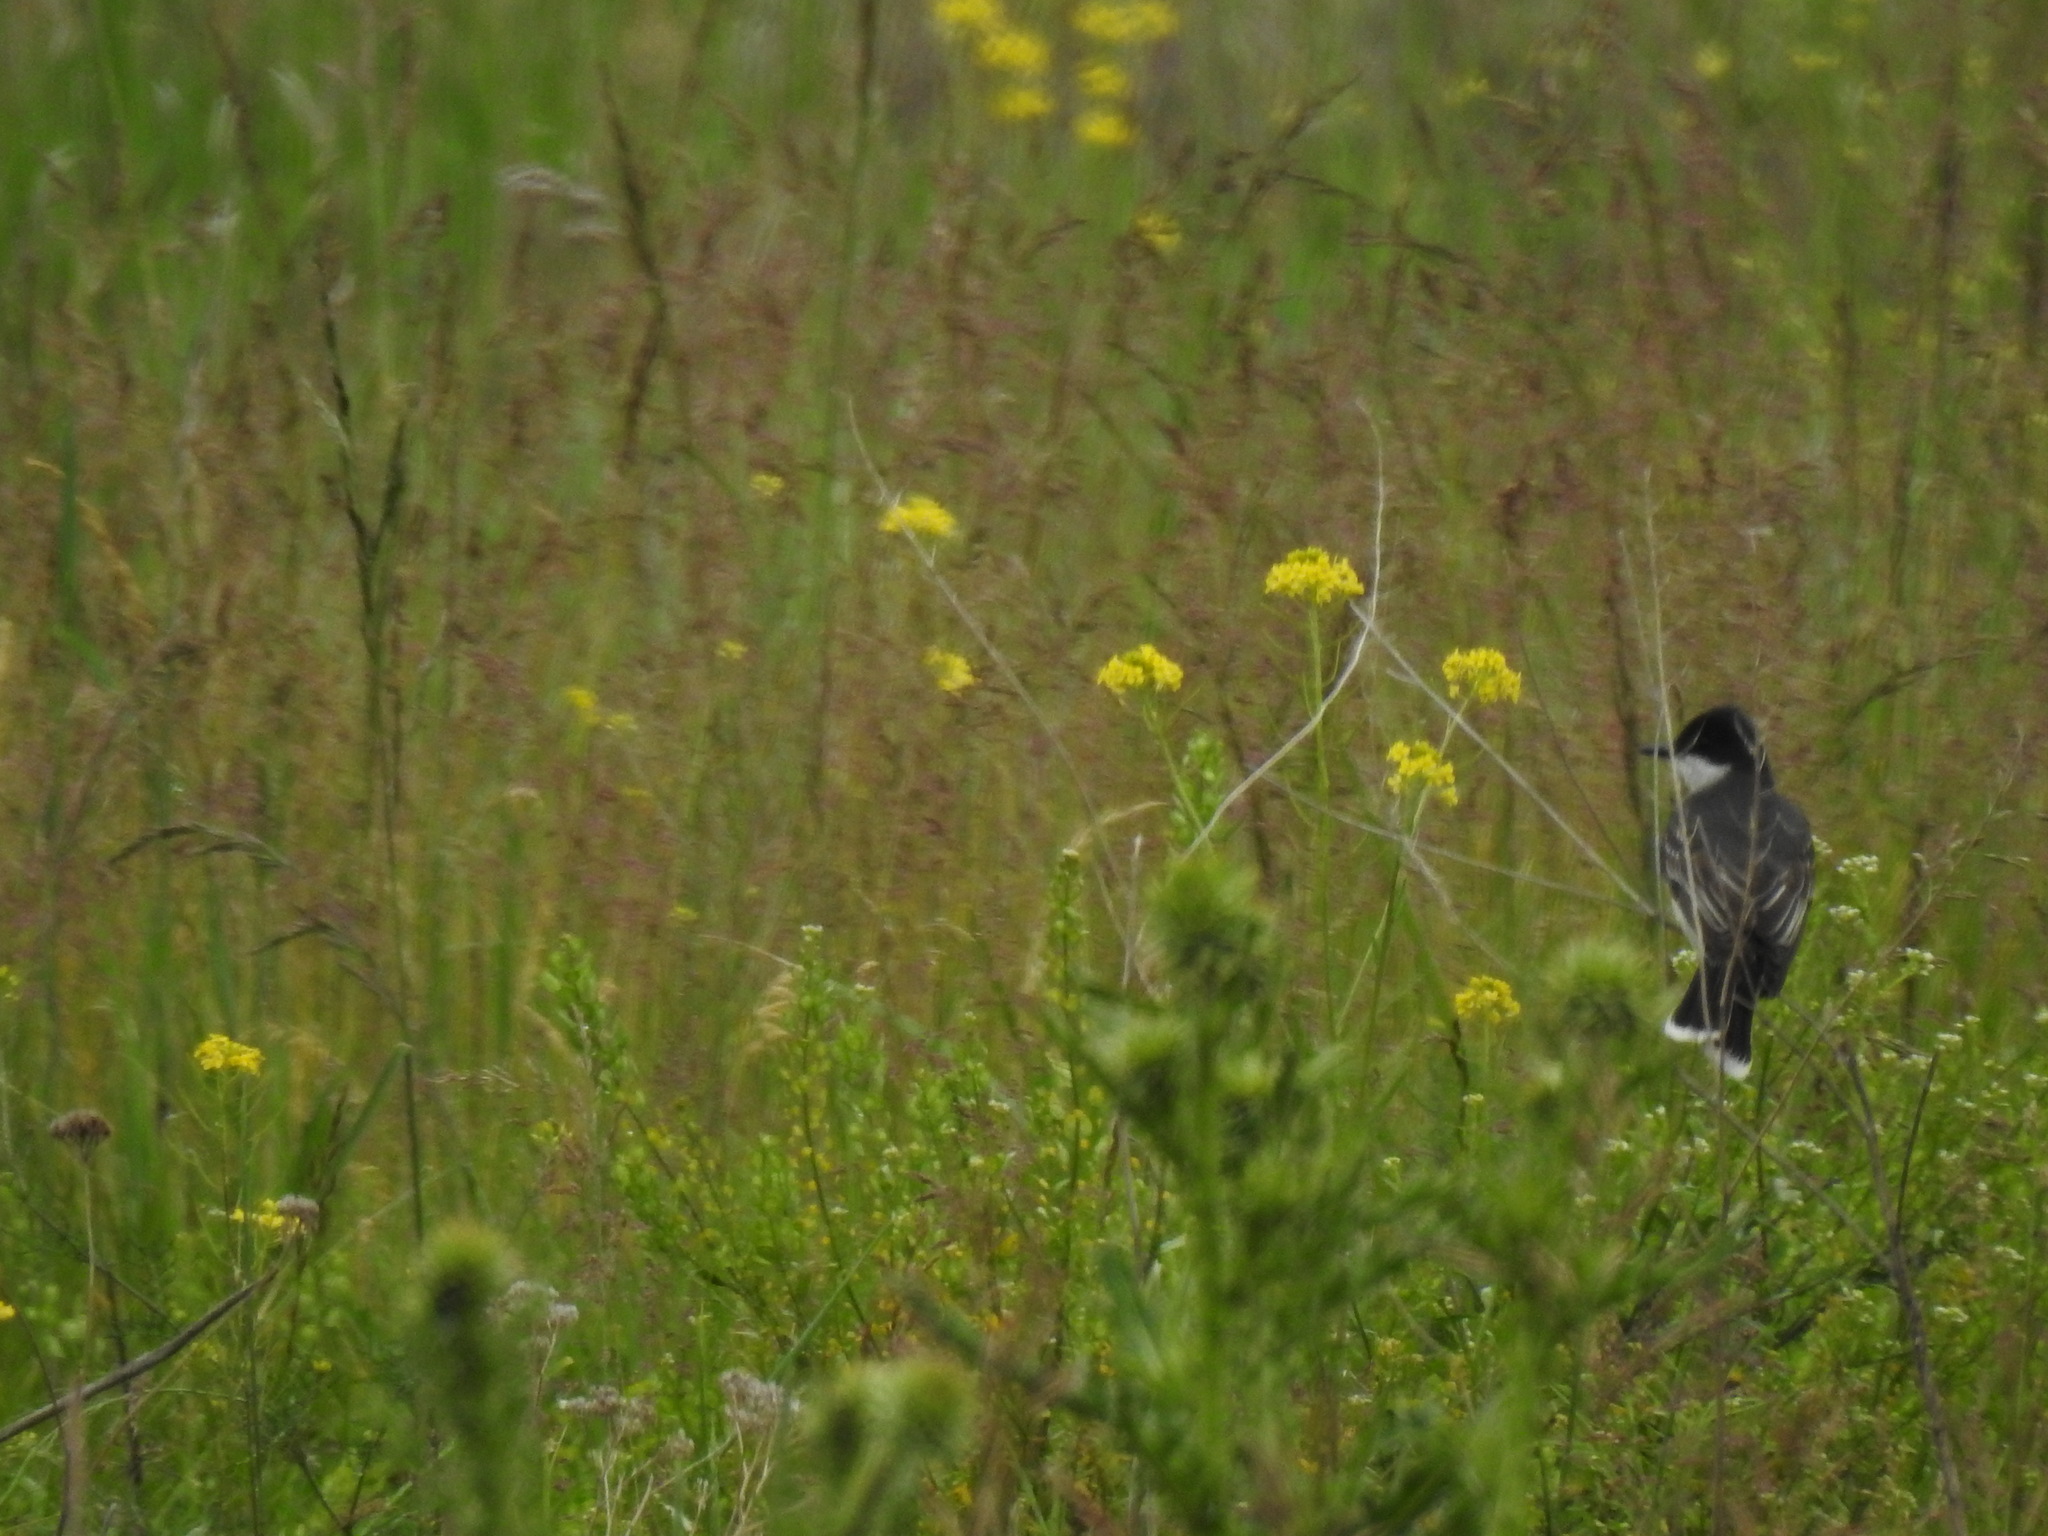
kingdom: Animalia
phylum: Chordata
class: Aves
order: Passeriformes
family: Tyrannidae
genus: Tyrannus
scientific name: Tyrannus tyrannus
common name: Eastern kingbird
